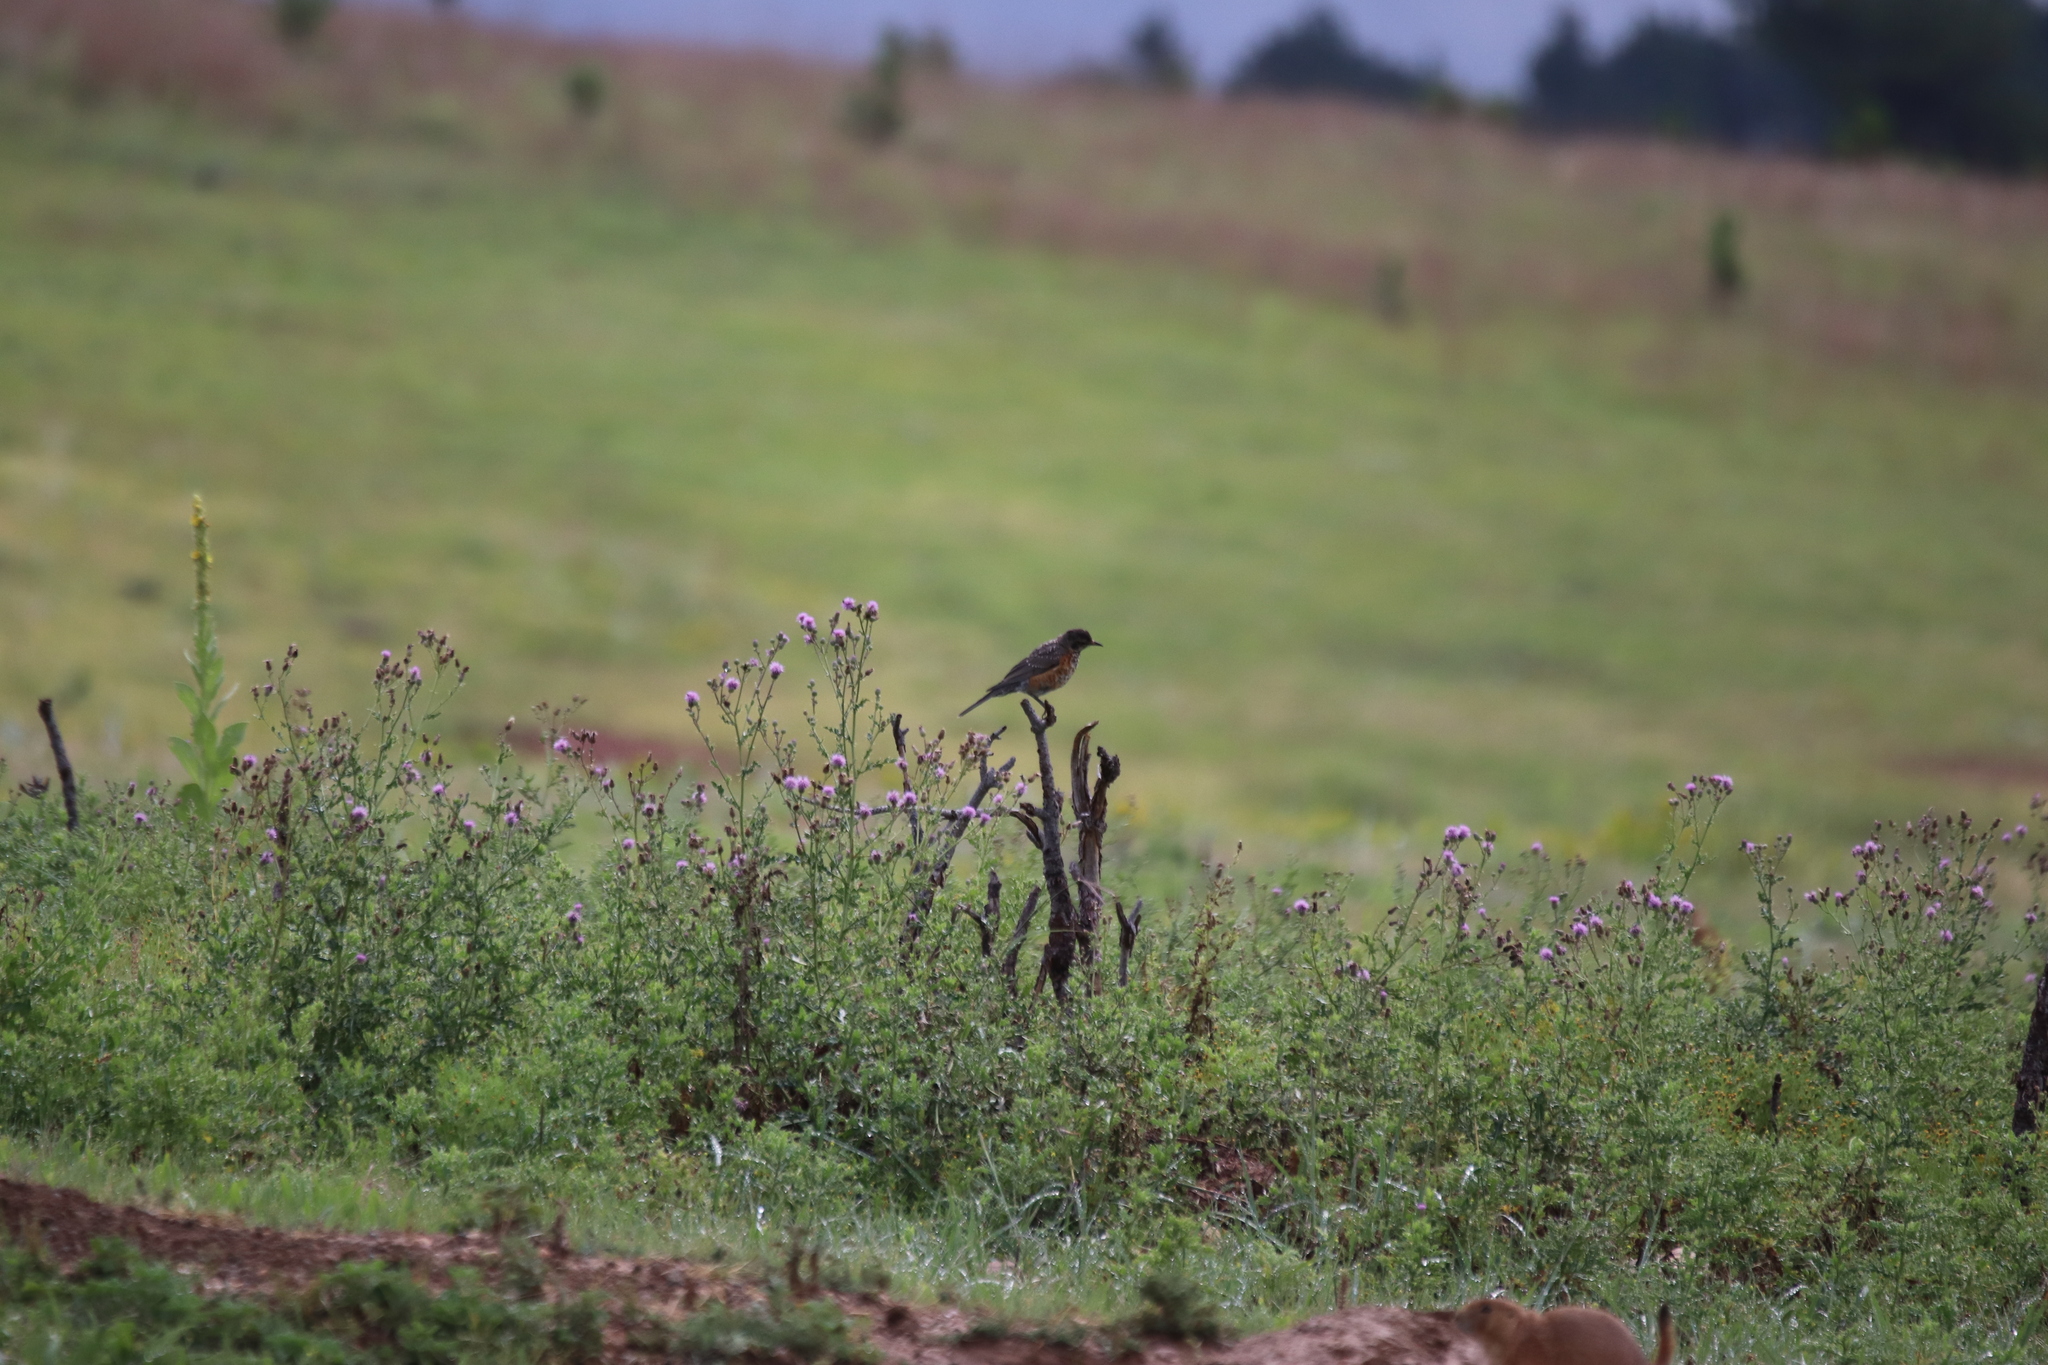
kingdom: Animalia
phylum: Chordata
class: Aves
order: Passeriformes
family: Turdidae
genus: Turdus
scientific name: Turdus migratorius
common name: American robin
